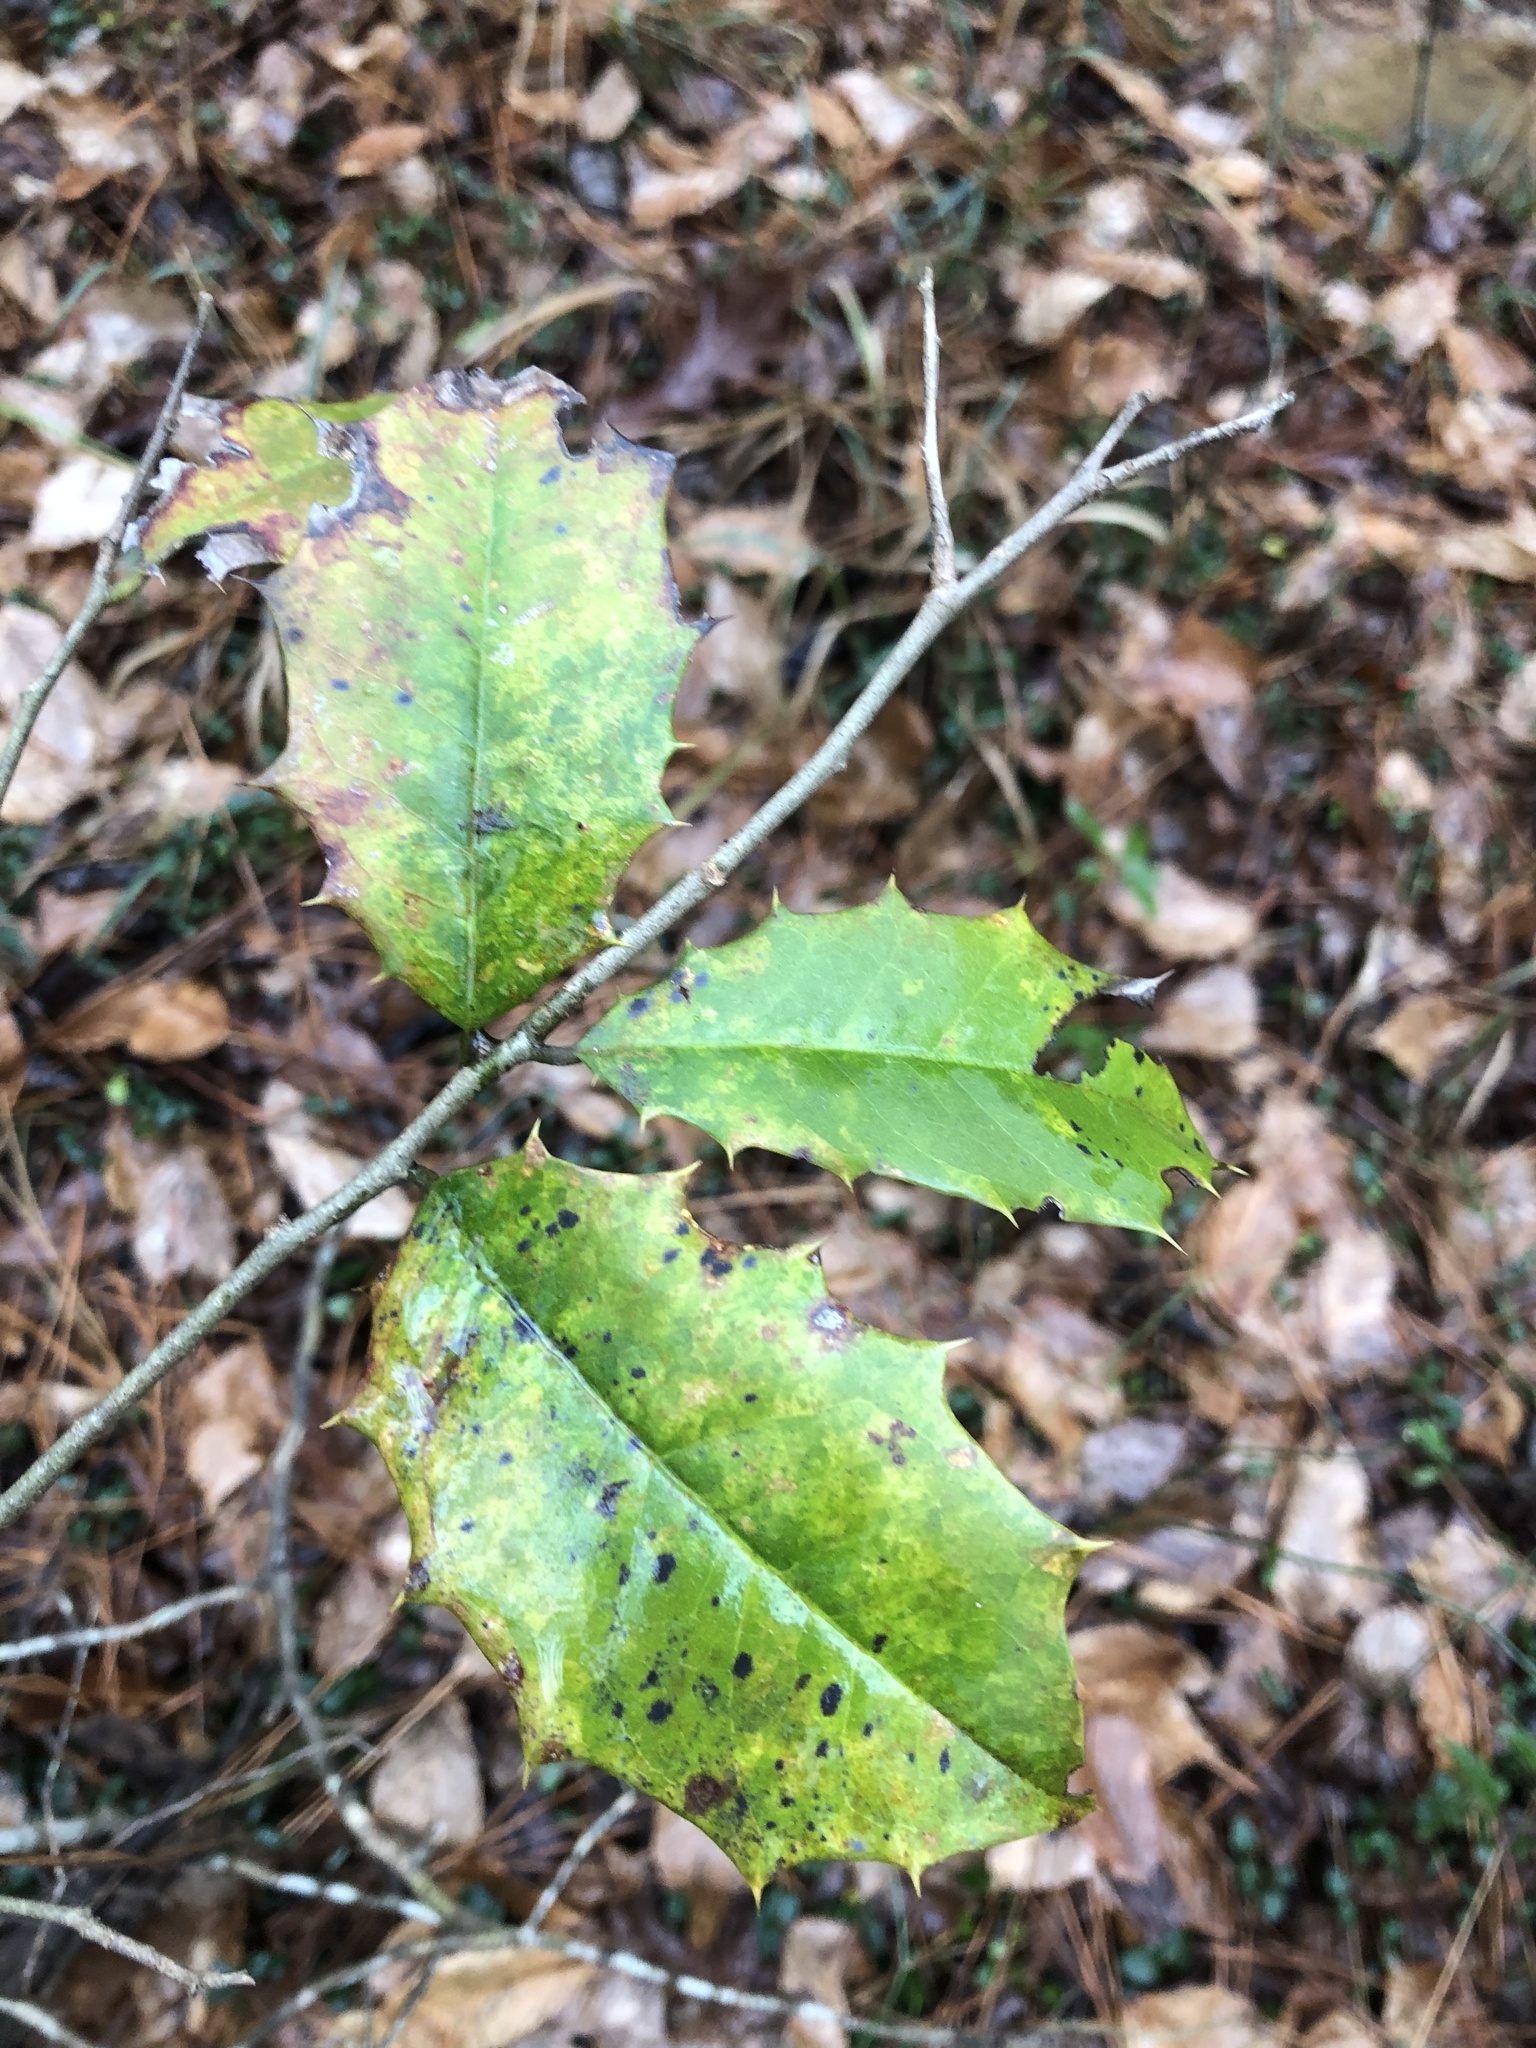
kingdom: Plantae
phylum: Tracheophyta
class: Magnoliopsida
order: Aquifoliales
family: Aquifoliaceae
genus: Ilex
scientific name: Ilex opaca
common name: American holly
